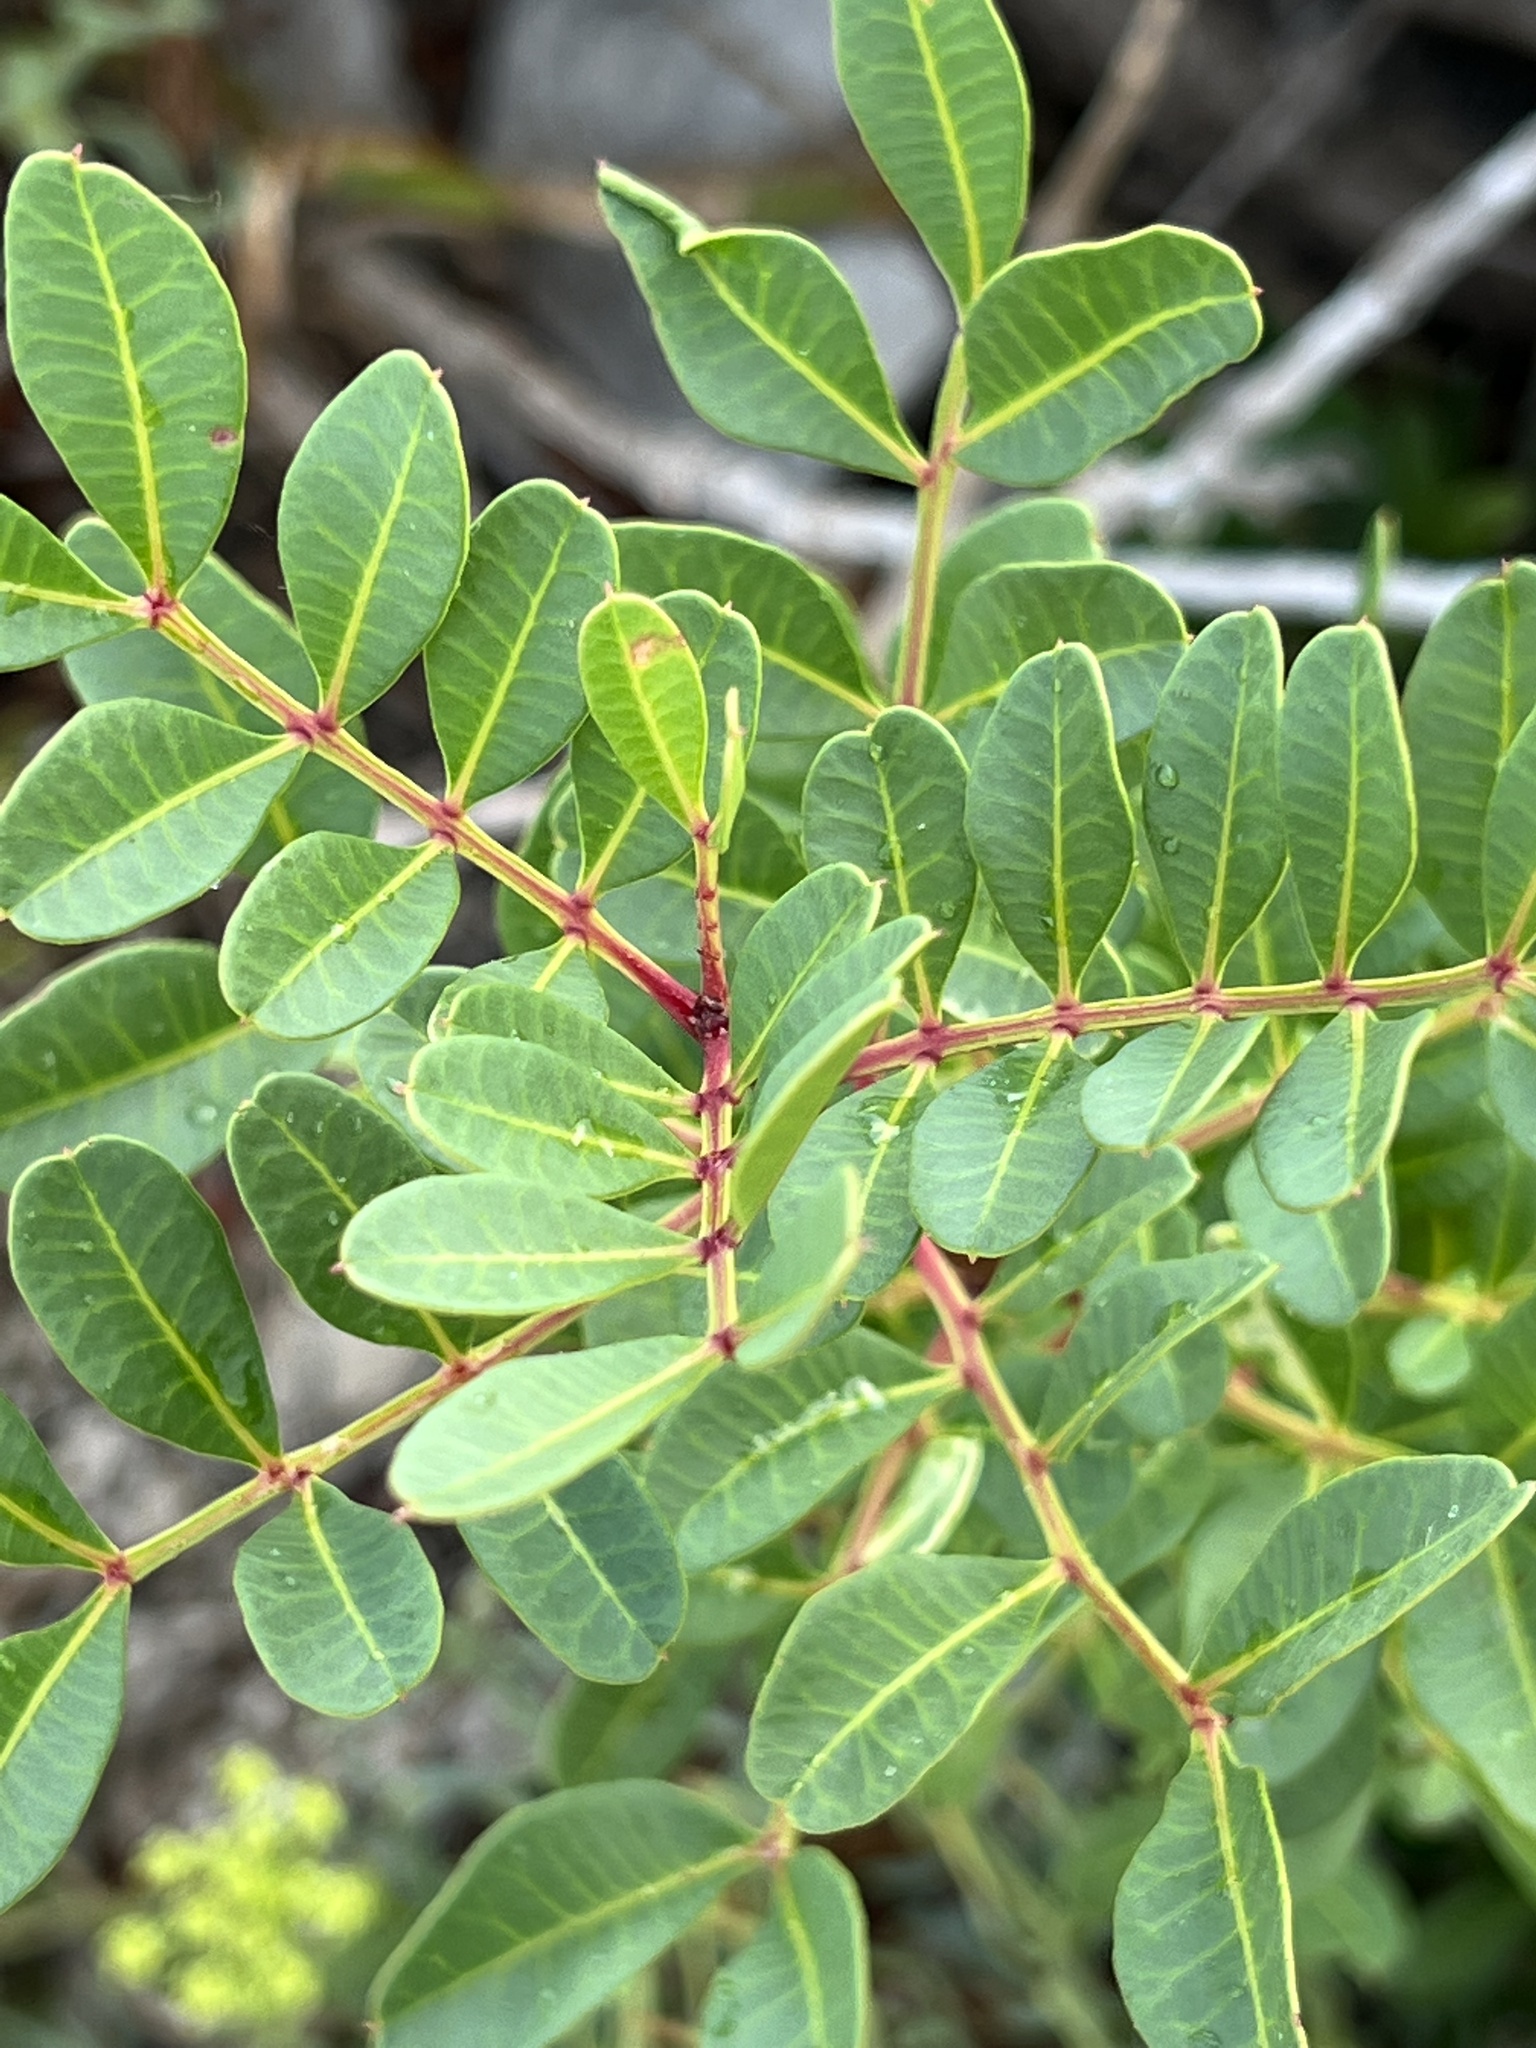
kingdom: Plantae
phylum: Tracheophyta
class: Magnoliopsida
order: Sapindales
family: Anacardiaceae
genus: Pistacia
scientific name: Pistacia lentiscus
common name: Lentisk
